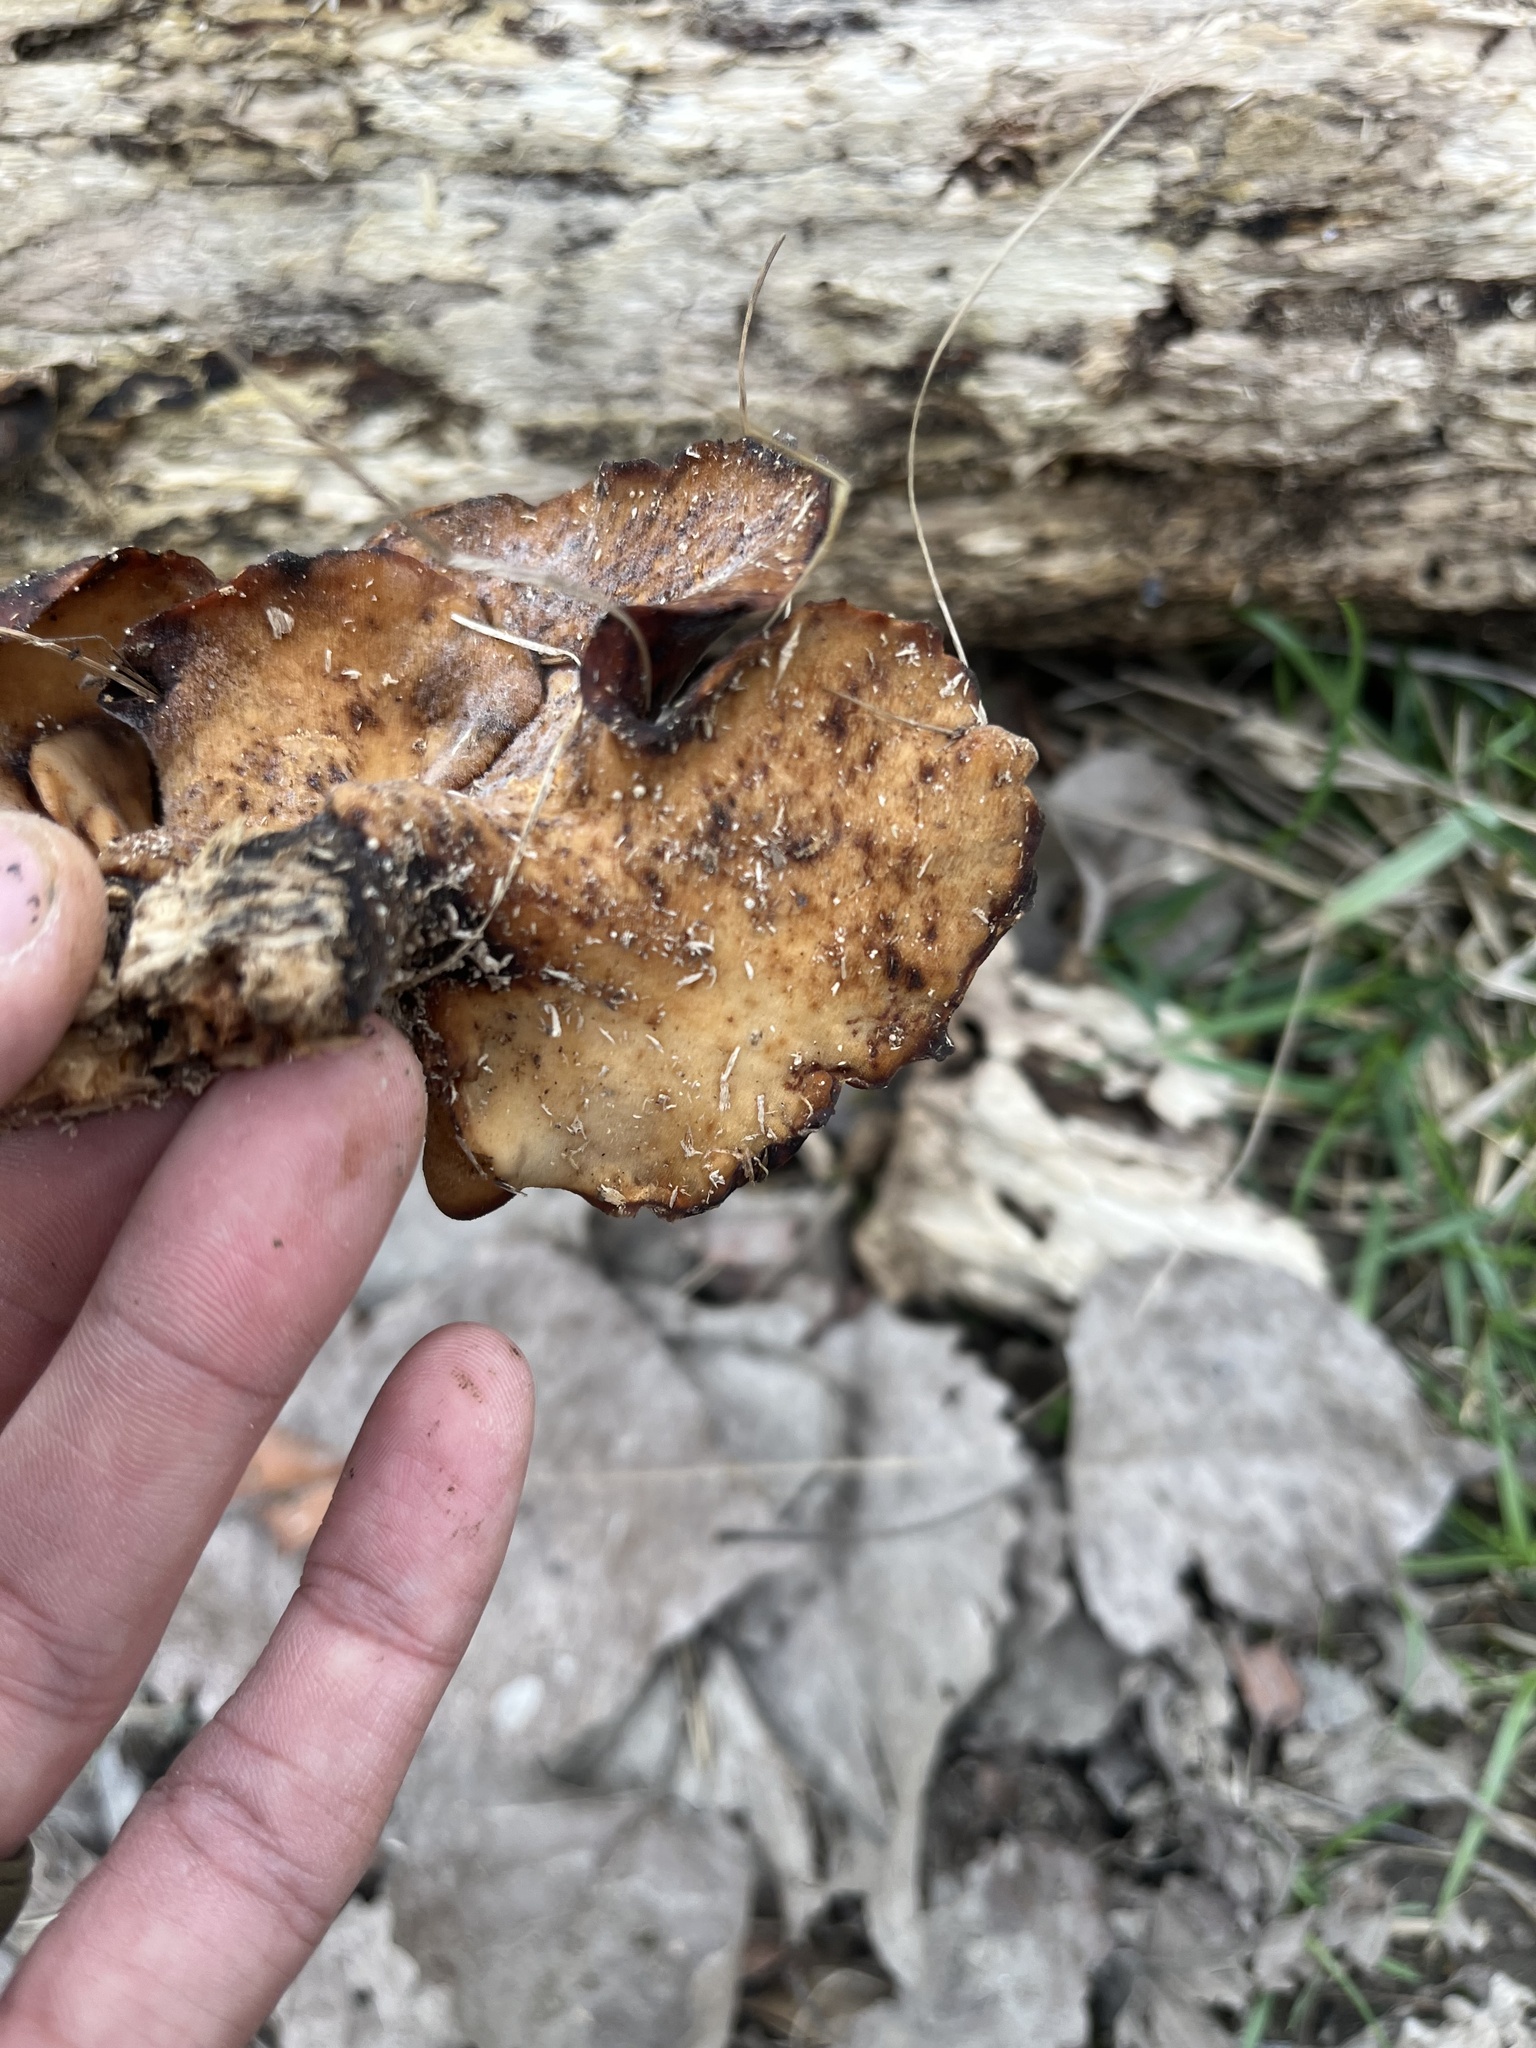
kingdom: Fungi
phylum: Basidiomycota
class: Agaricomycetes
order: Polyporales
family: Polyporaceae
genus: Picipes
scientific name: Picipes badius
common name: Bay polypore
